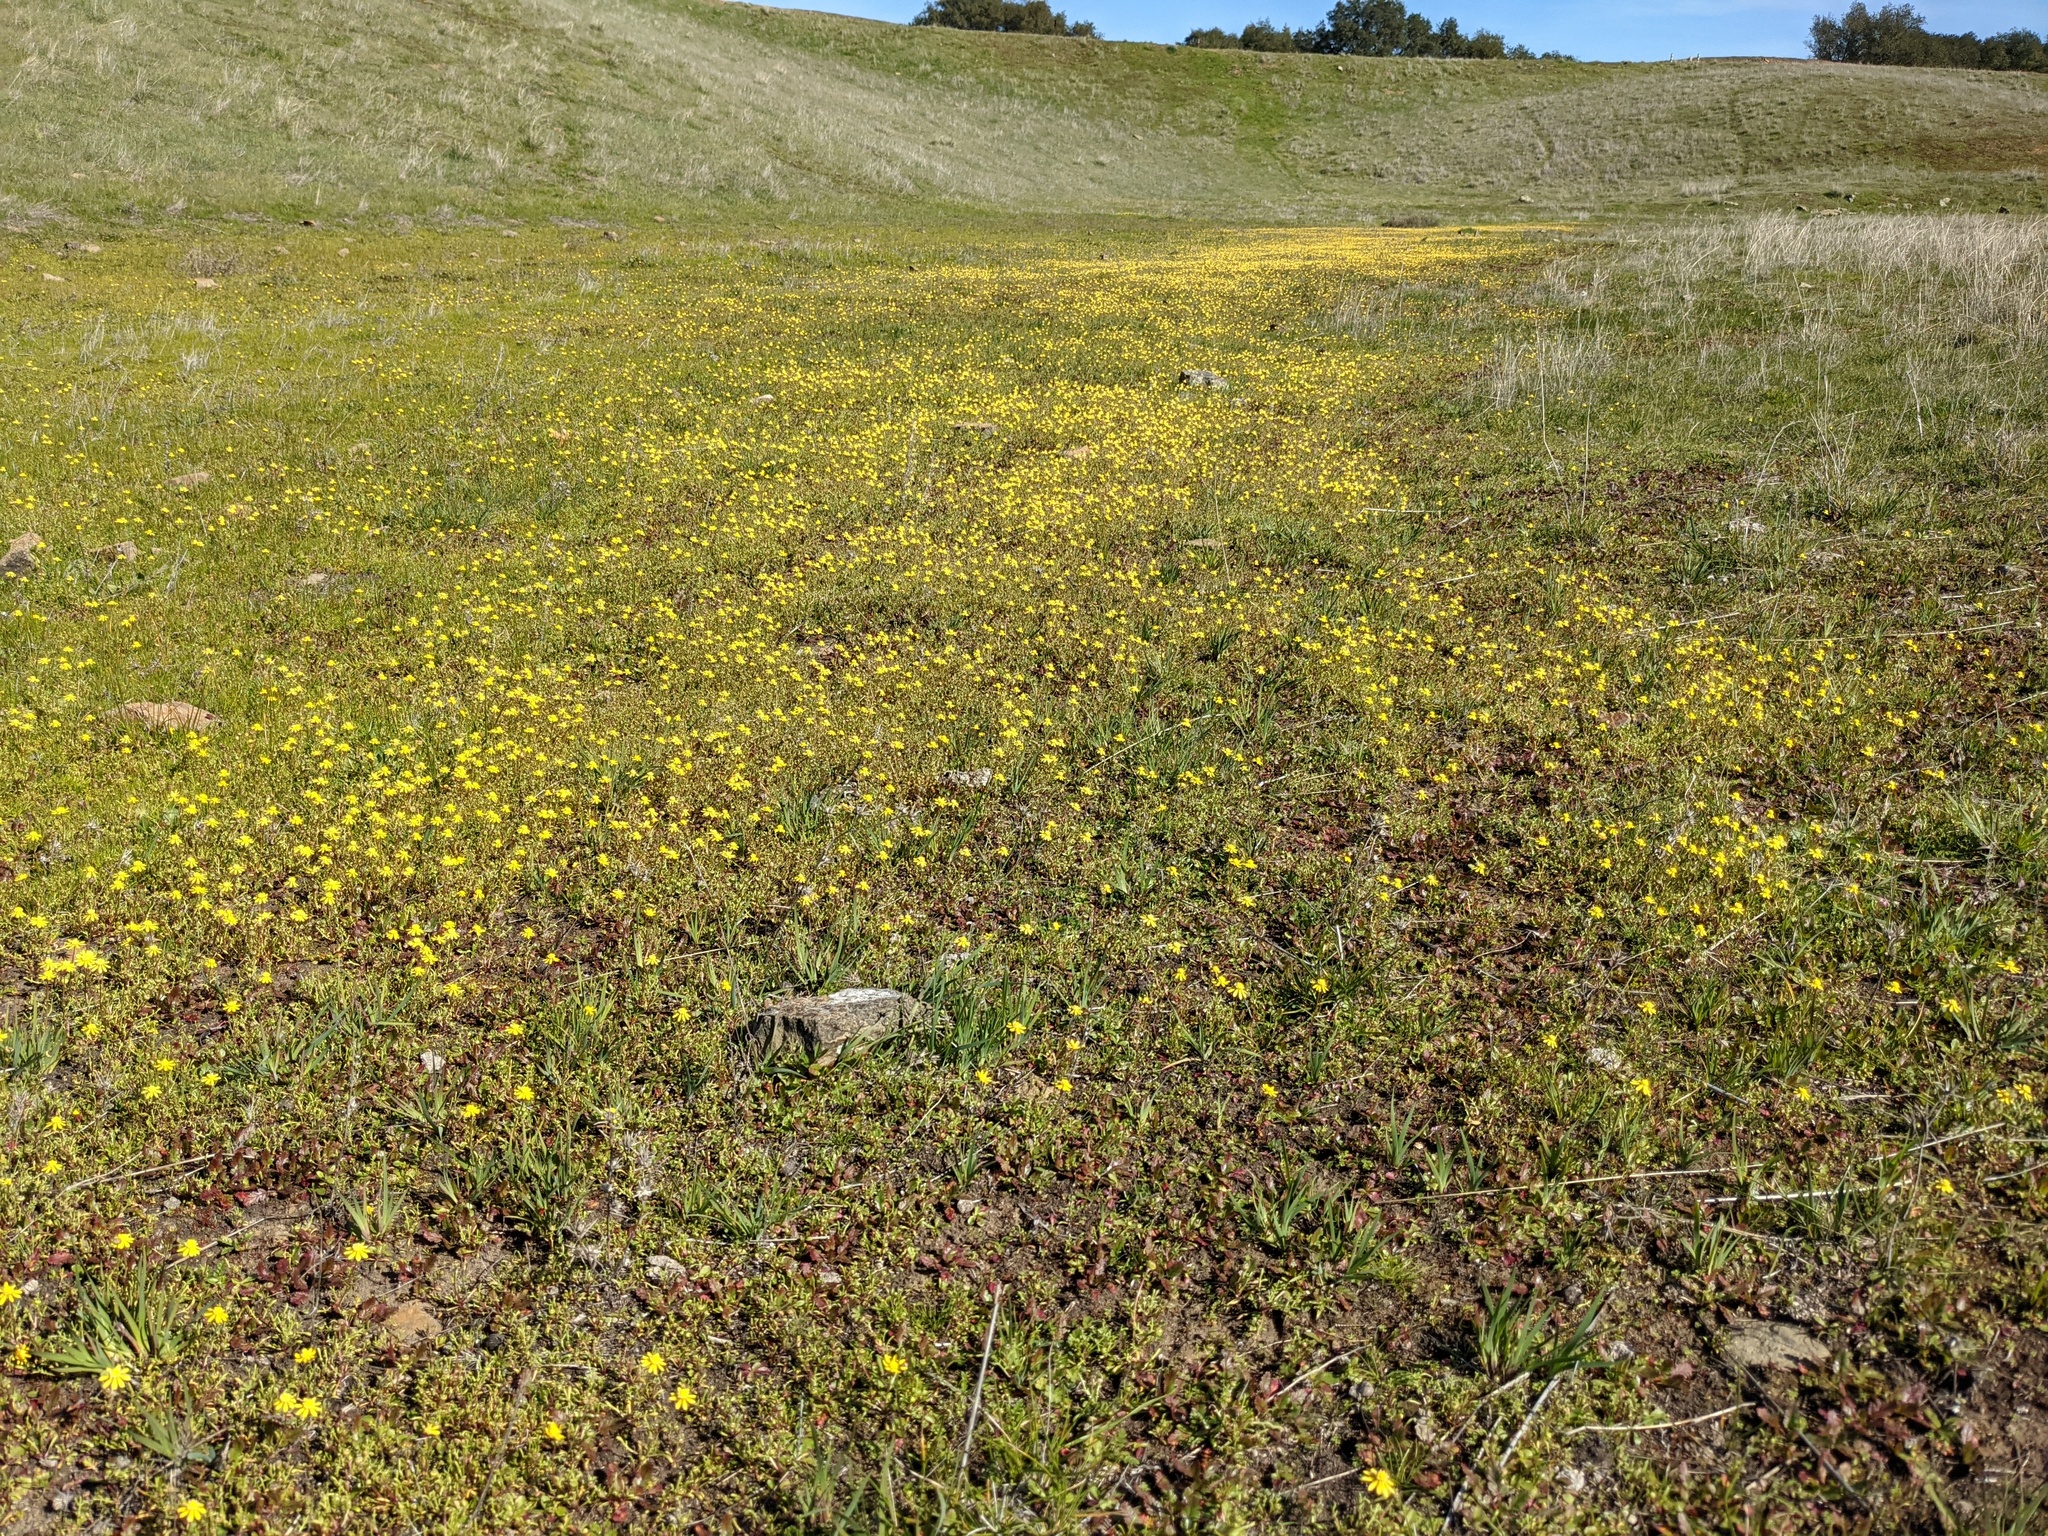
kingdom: Plantae
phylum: Tracheophyta
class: Magnoliopsida
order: Asterales
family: Asteraceae
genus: Blennosperma
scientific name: Blennosperma nanum
